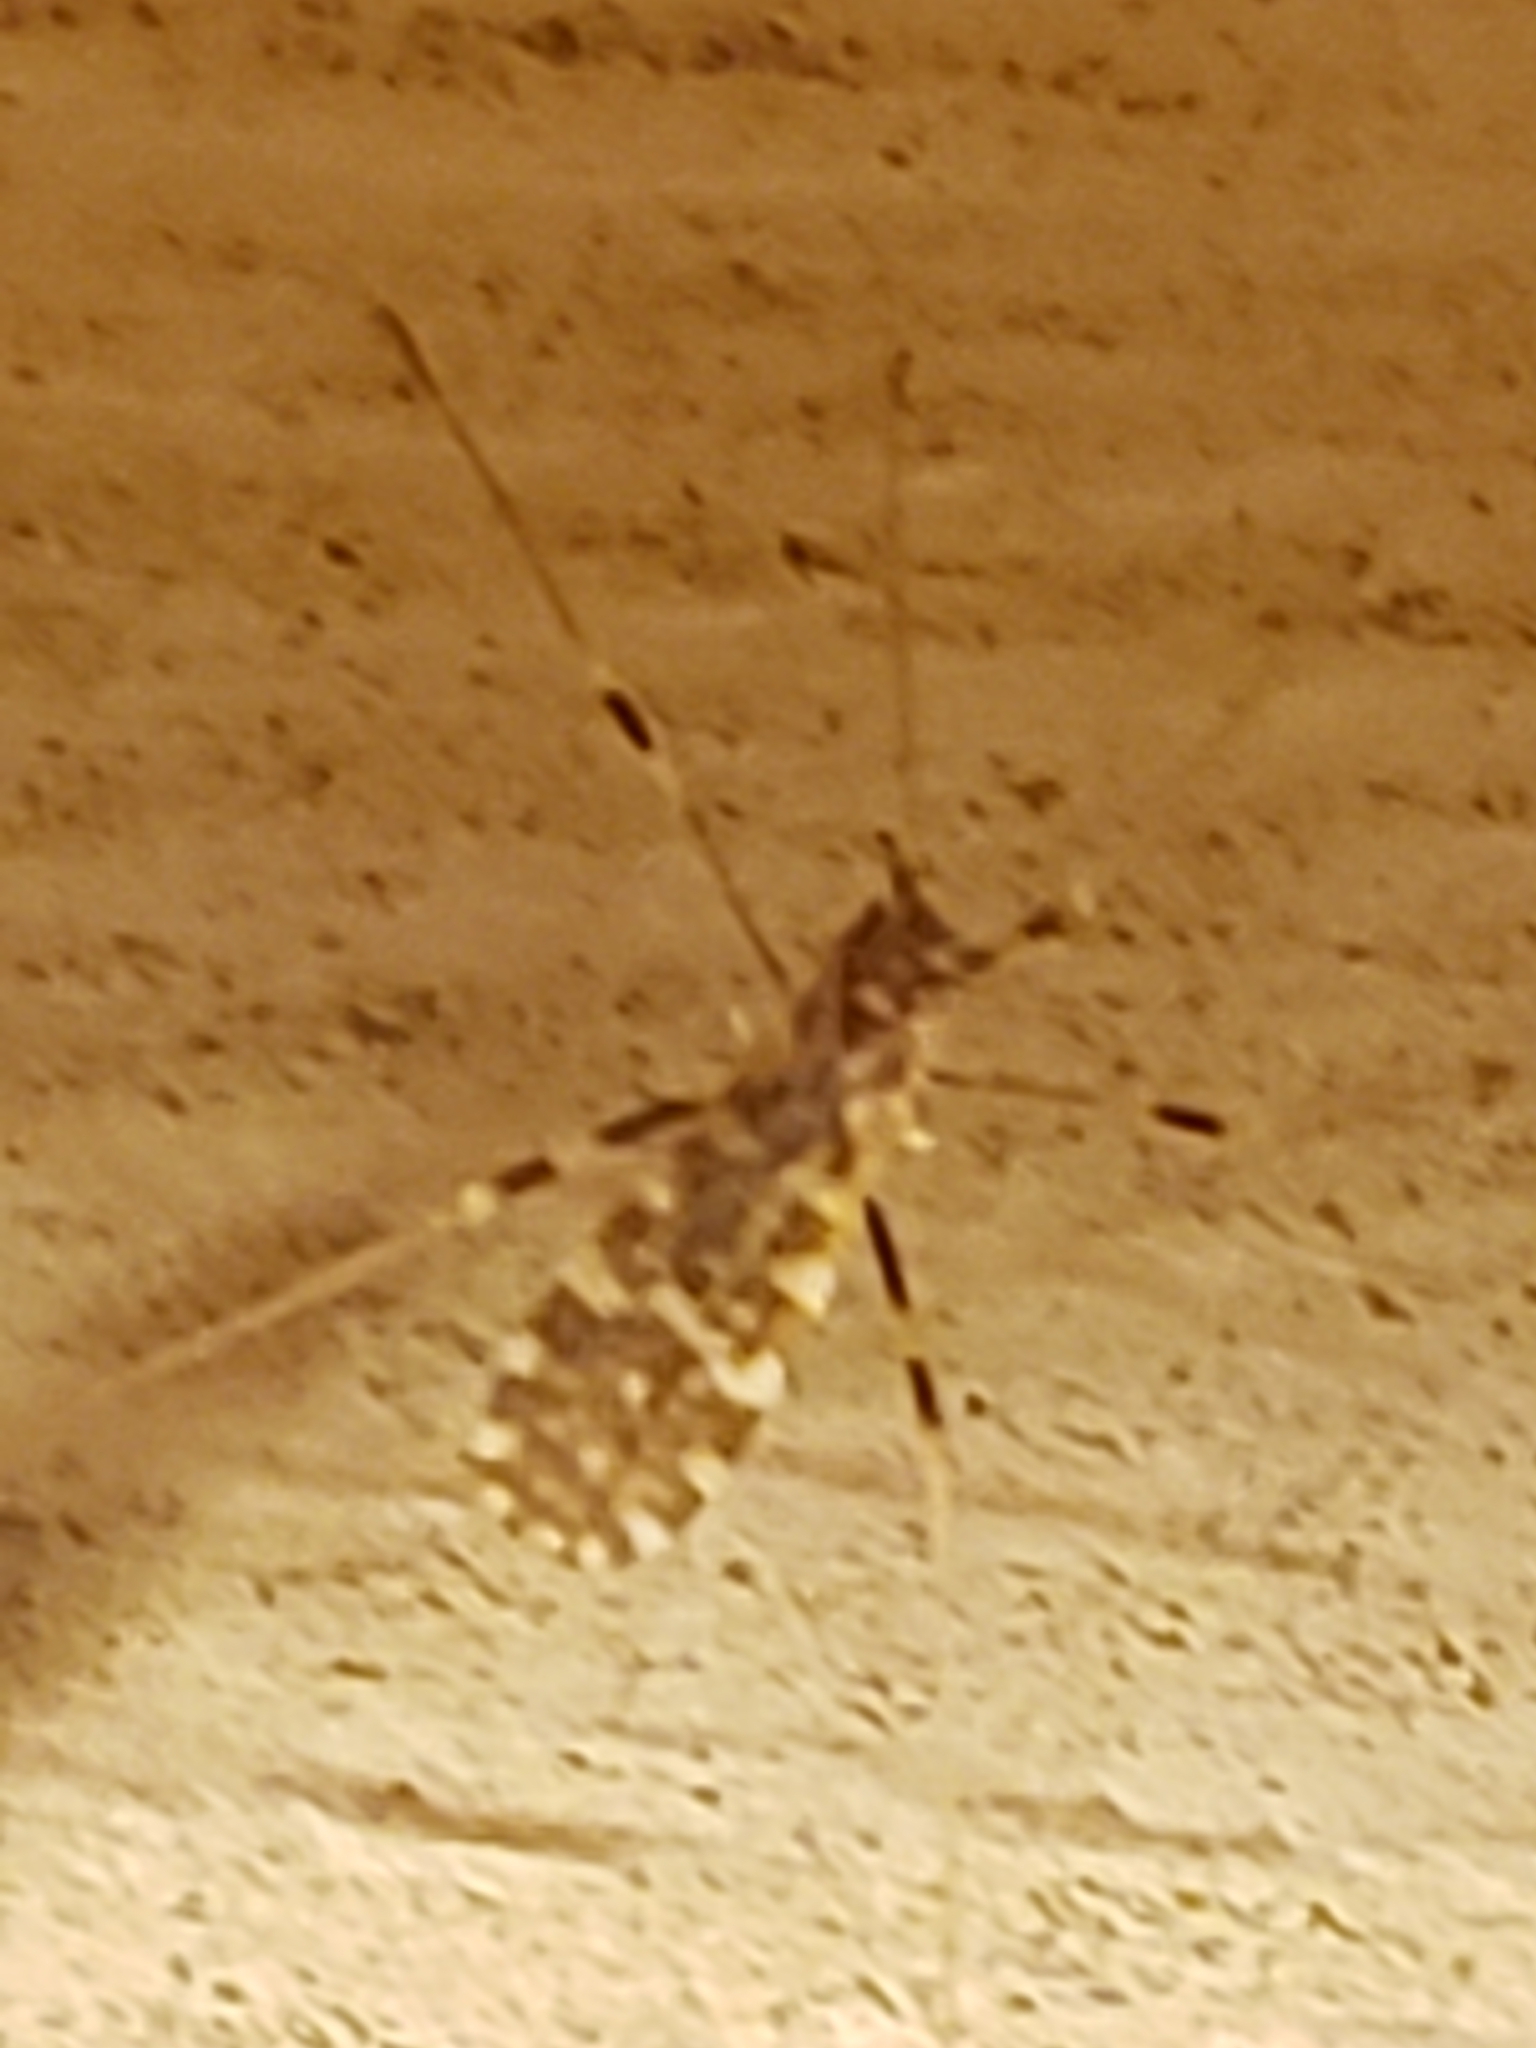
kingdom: Animalia
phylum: Arthropoda
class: Insecta
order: Diptera
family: Limoniidae
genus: Erioptera
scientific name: Erioptera caliptera
